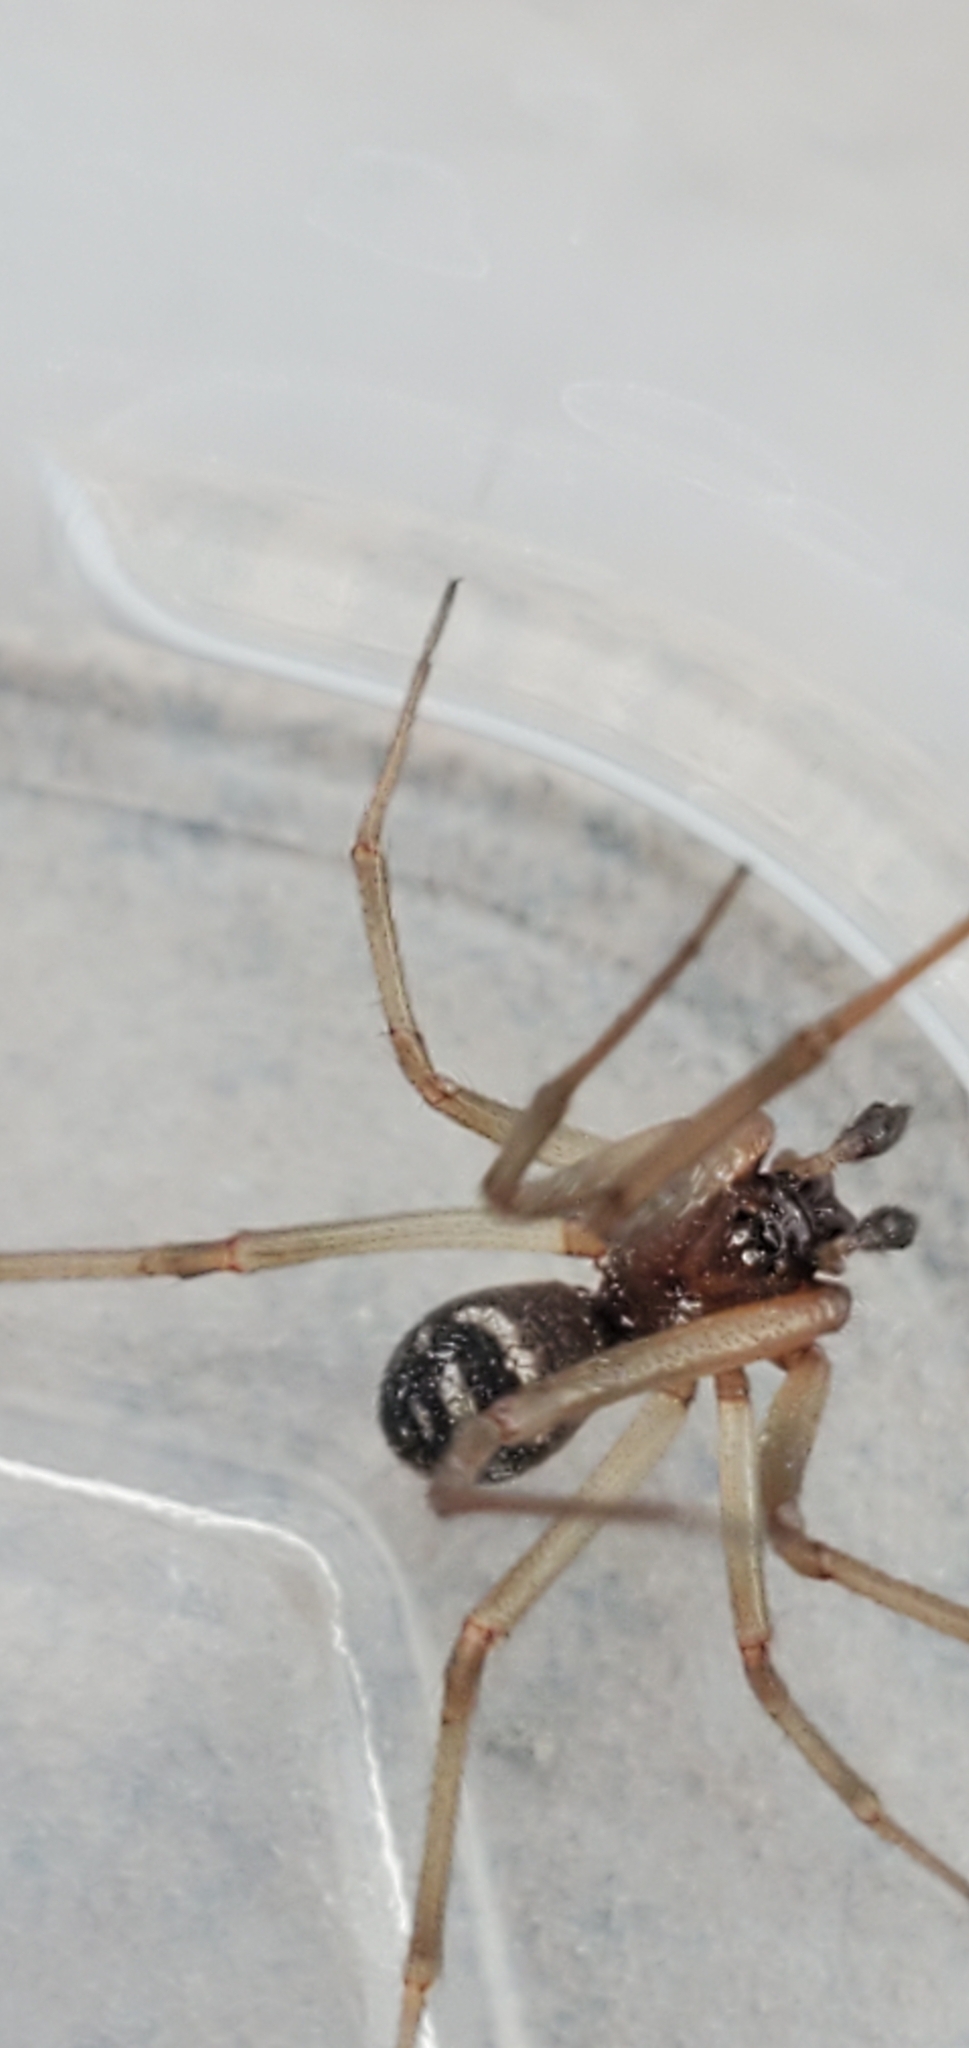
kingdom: Animalia
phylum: Arthropoda
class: Arachnida
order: Araneae
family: Theridiidae
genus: Steatoda
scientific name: Steatoda grossa
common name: False black widow
